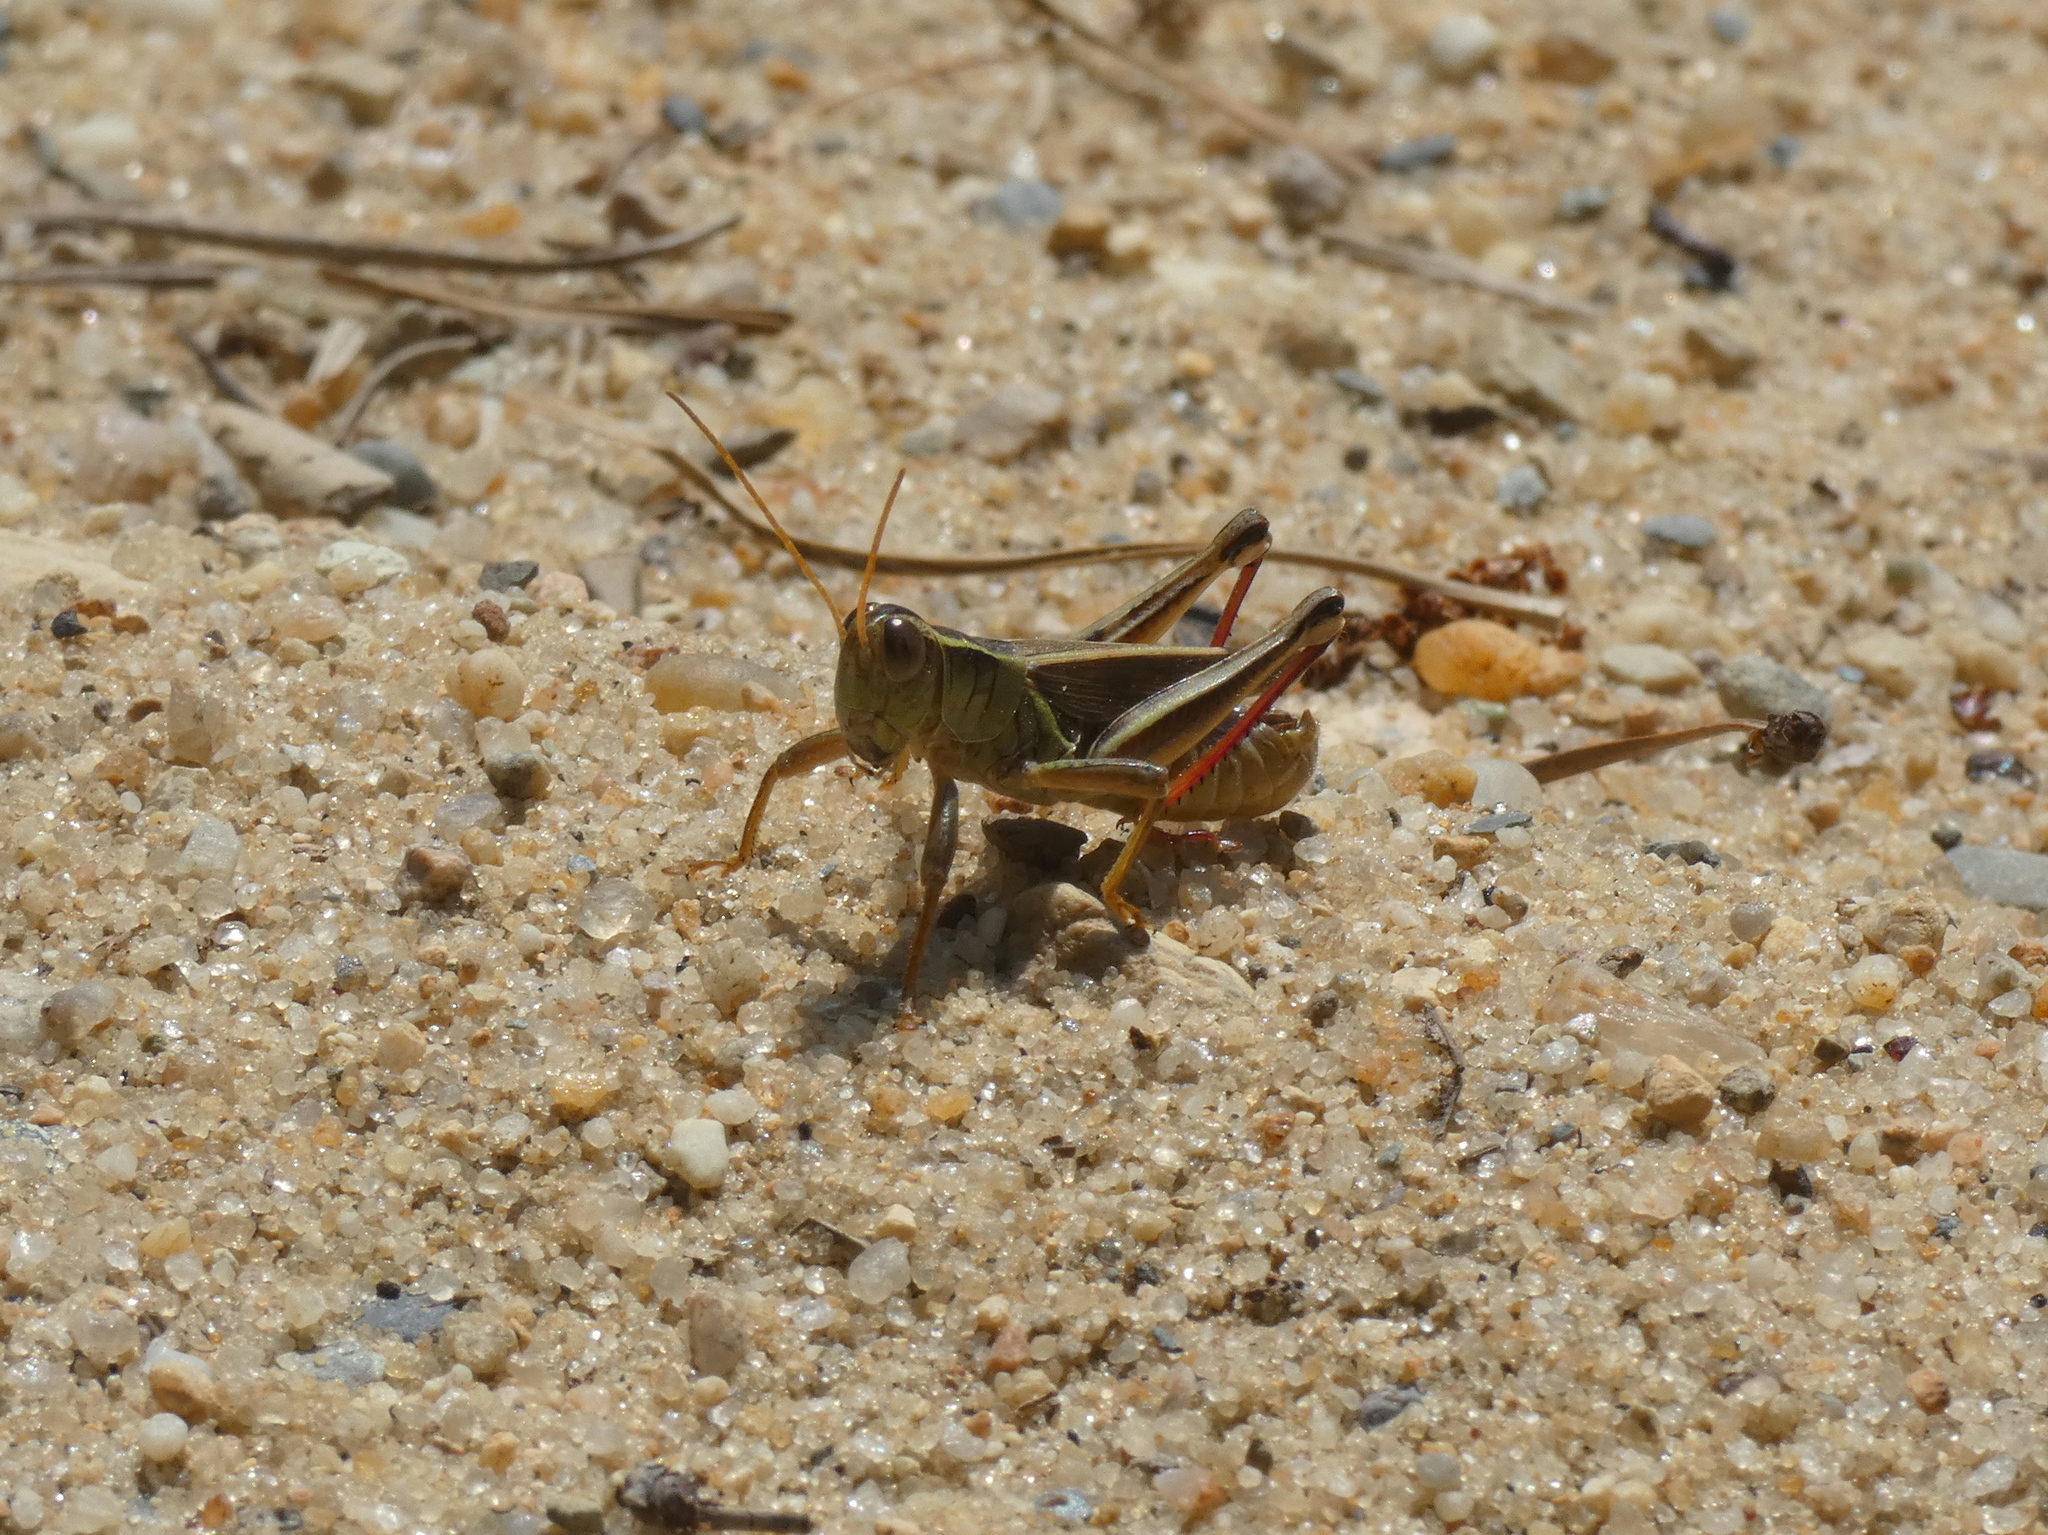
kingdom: Animalia
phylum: Arthropoda
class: Insecta
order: Orthoptera
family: Acrididae
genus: Melanoplus
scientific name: Melanoplus bivittatus
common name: Two-striped grasshopper
